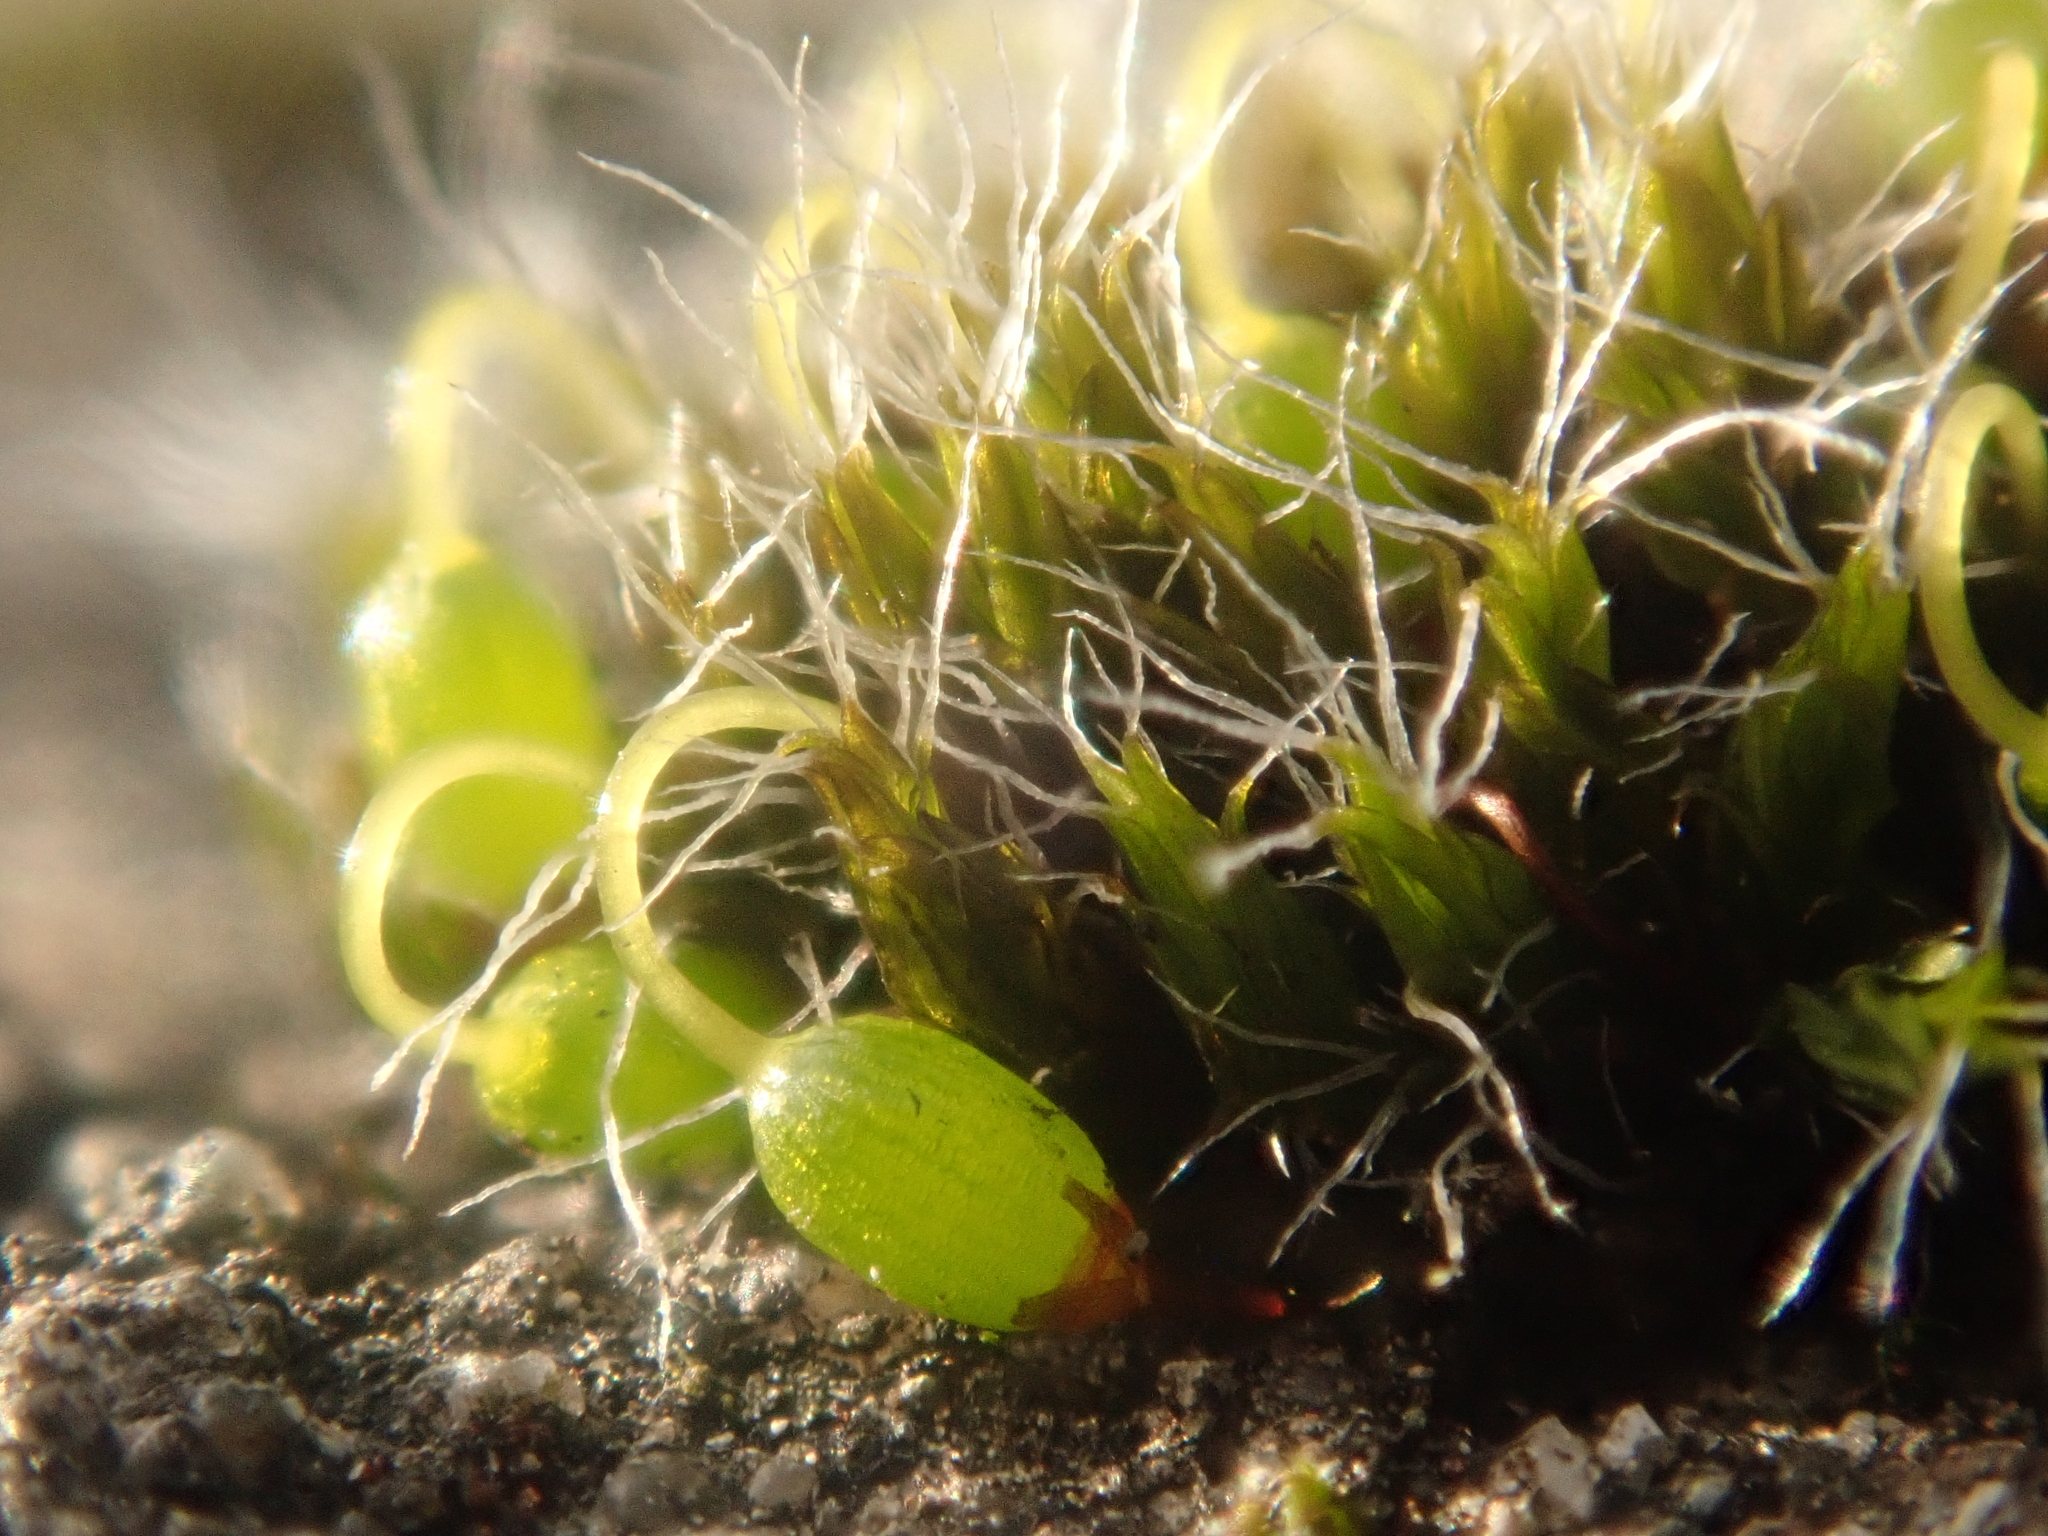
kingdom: Plantae
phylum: Bryophyta
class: Bryopsida
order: Grimmiales
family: Grimmiaceae
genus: Grimmia
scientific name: Grimmia pulvinata
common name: Grey-cushioned grimmia
